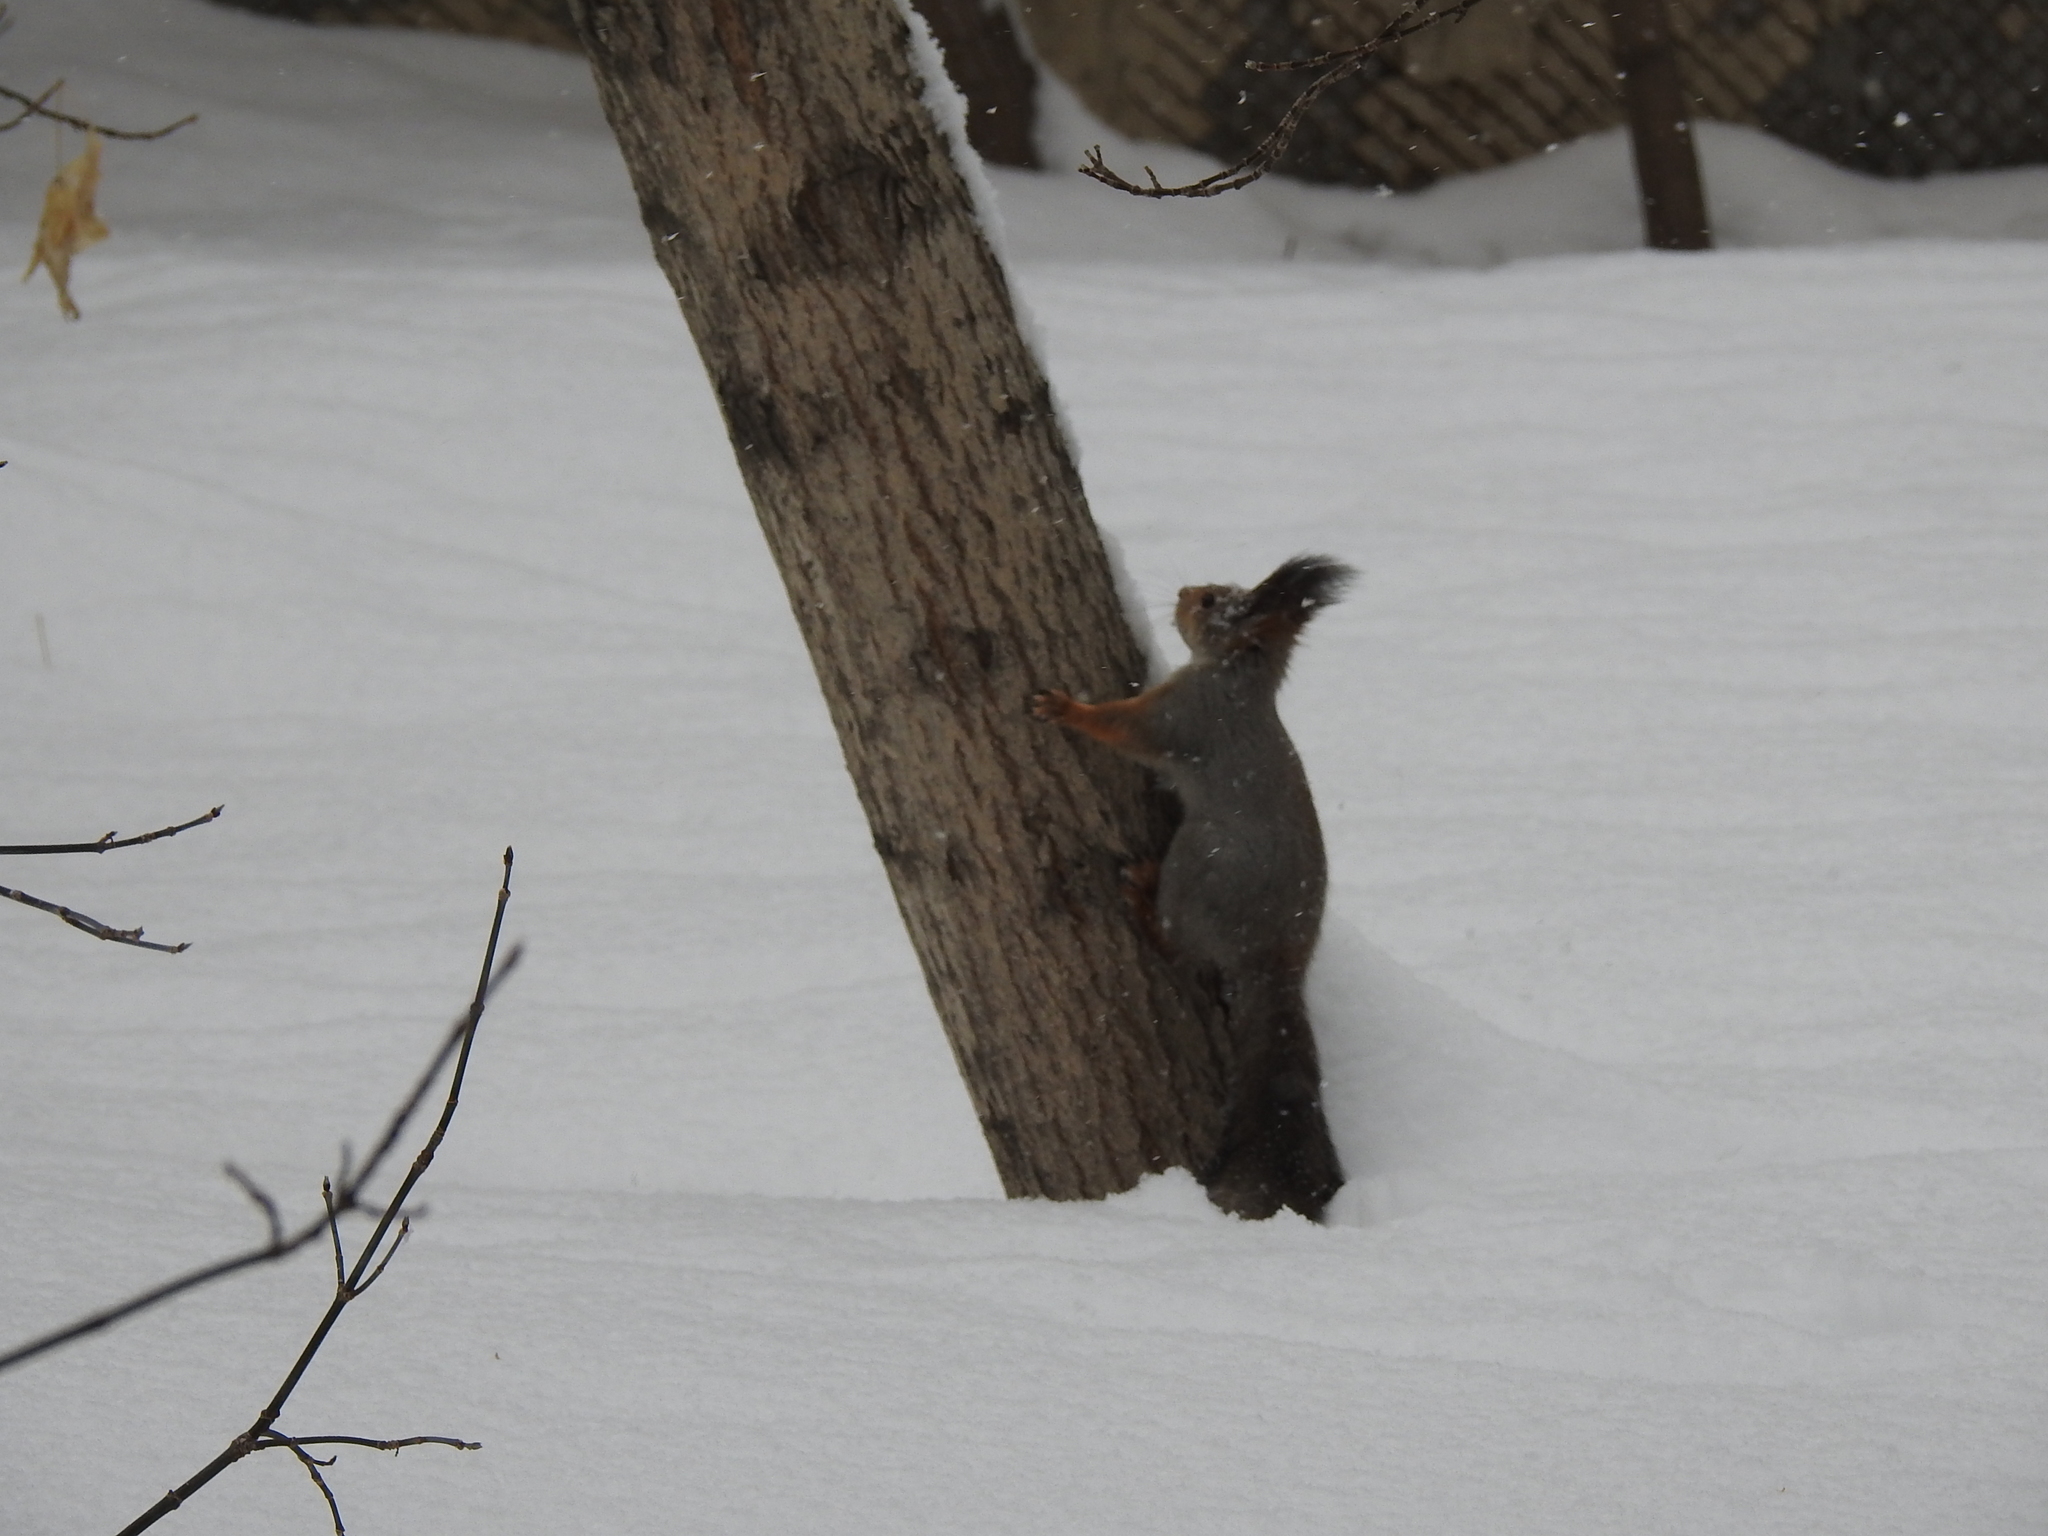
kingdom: Animalia
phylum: Chordata
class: Mammalia
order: Rodentia
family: Sciuridae
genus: Sciurus
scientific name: Sciurus vulgaris
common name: Eurasian red squirrel
